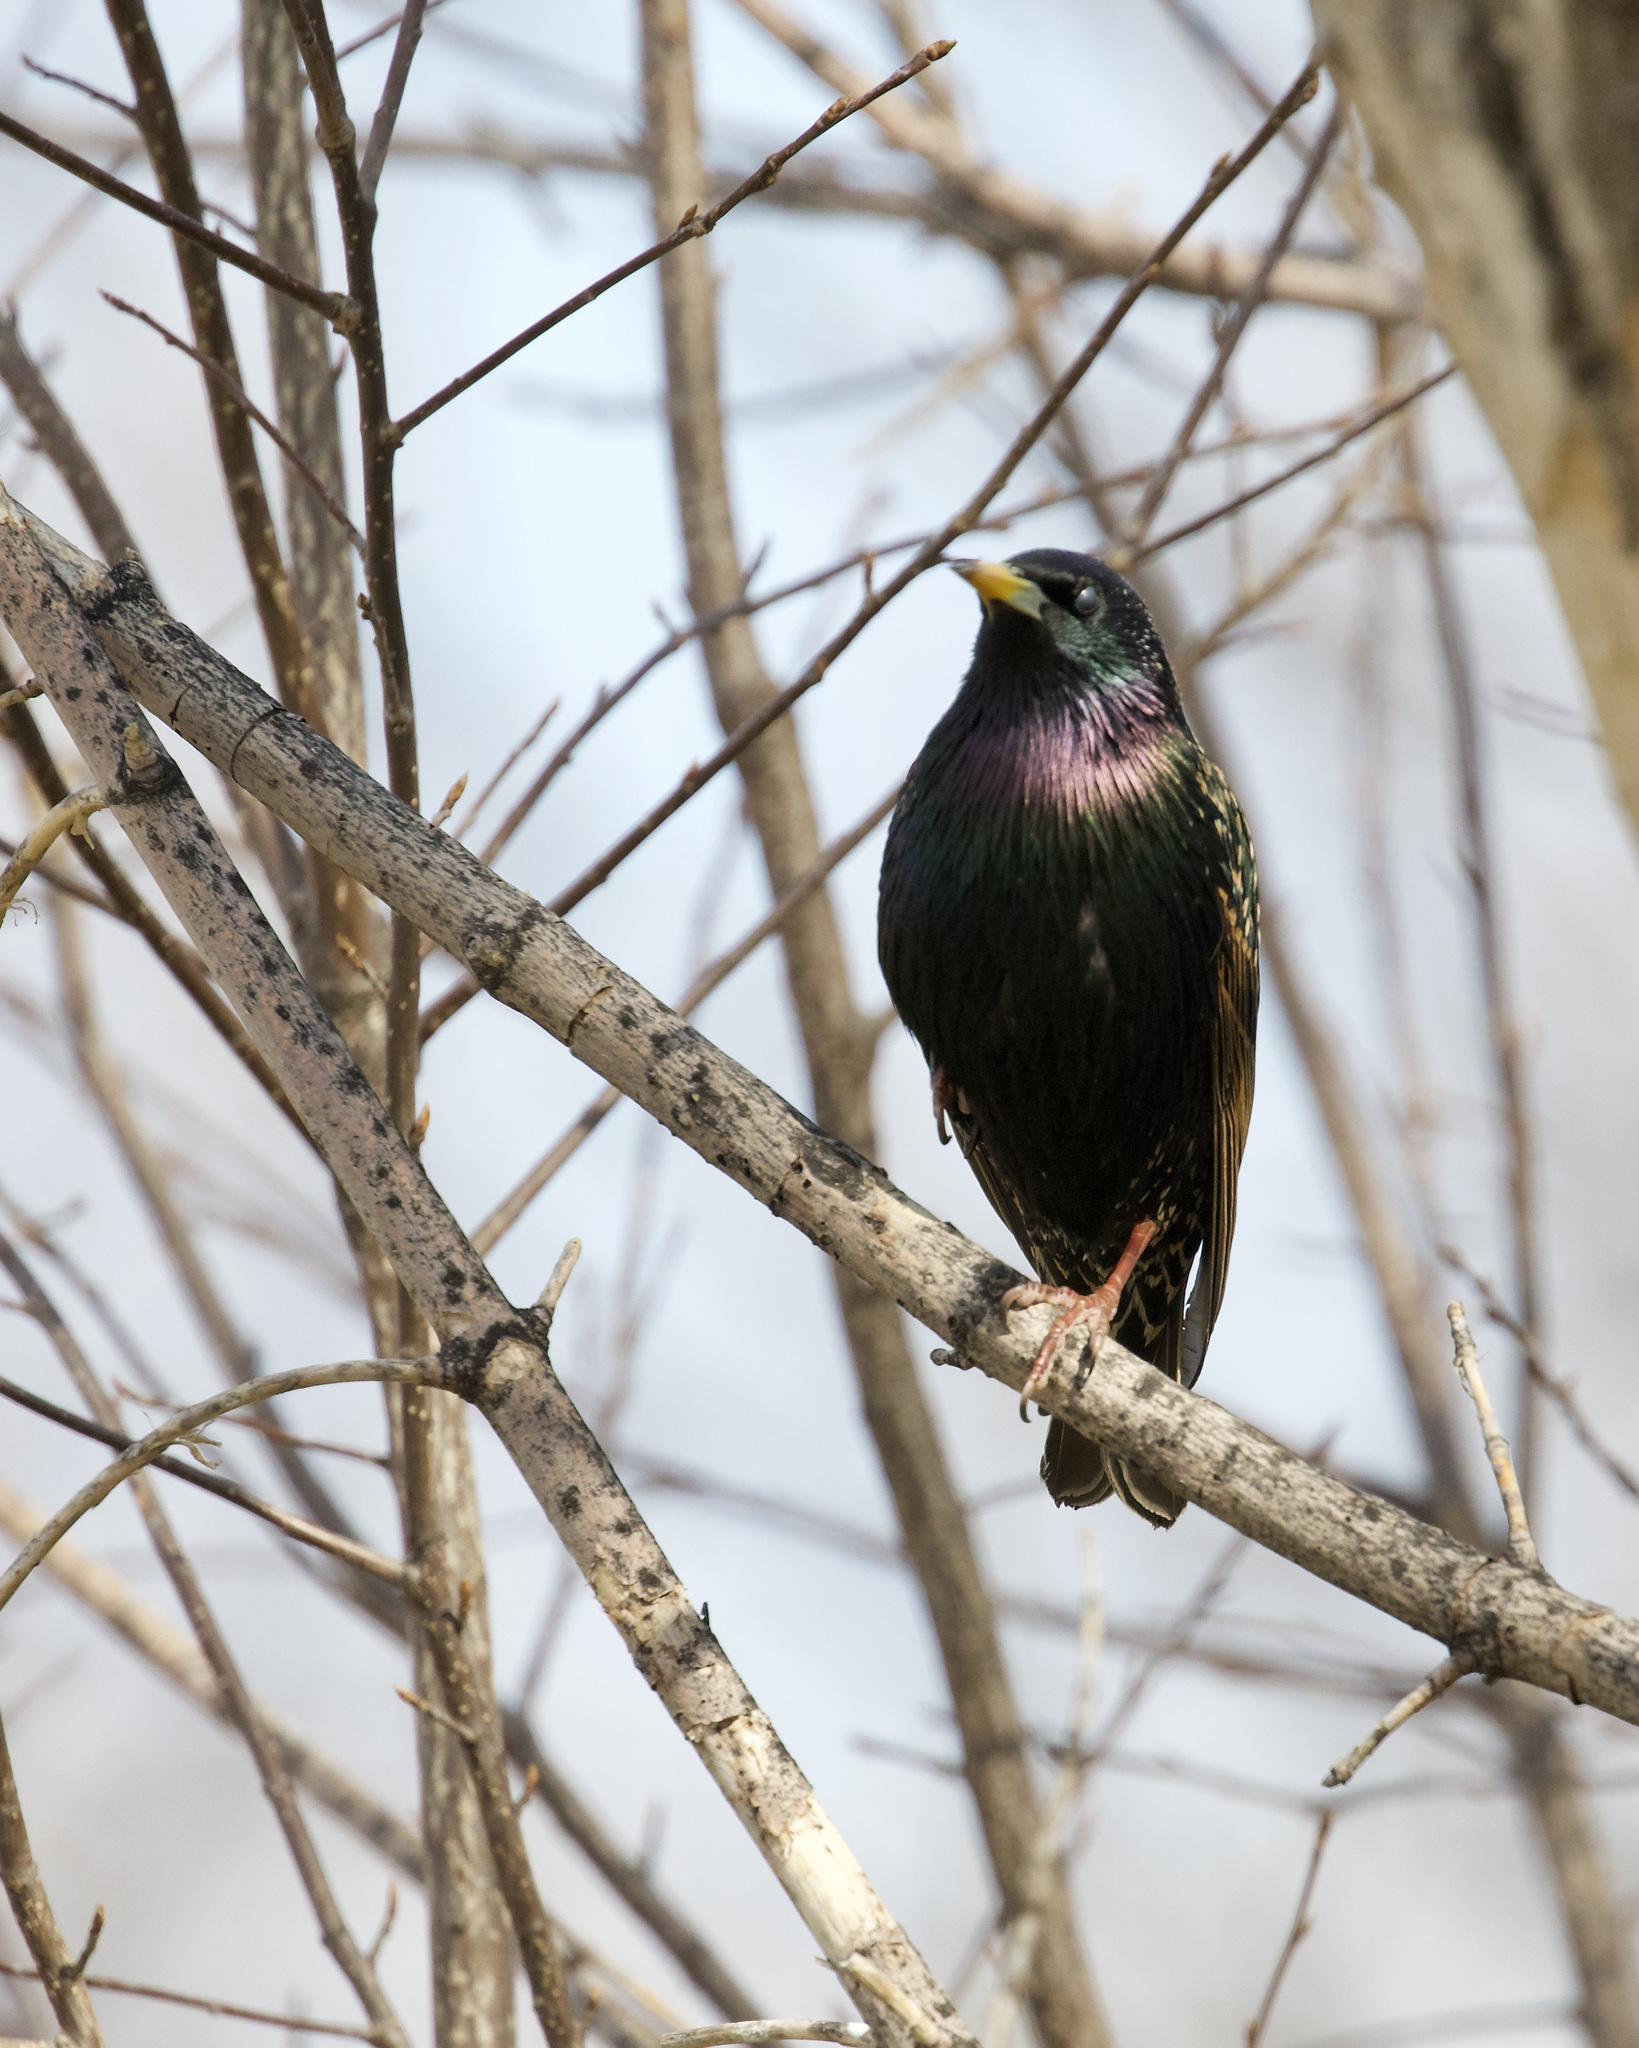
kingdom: Animalia
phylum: Chordata
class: Aves
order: Passeriformes
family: Sturnidae
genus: Sturnus
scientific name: Sturnus vulgaris
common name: Common starling
